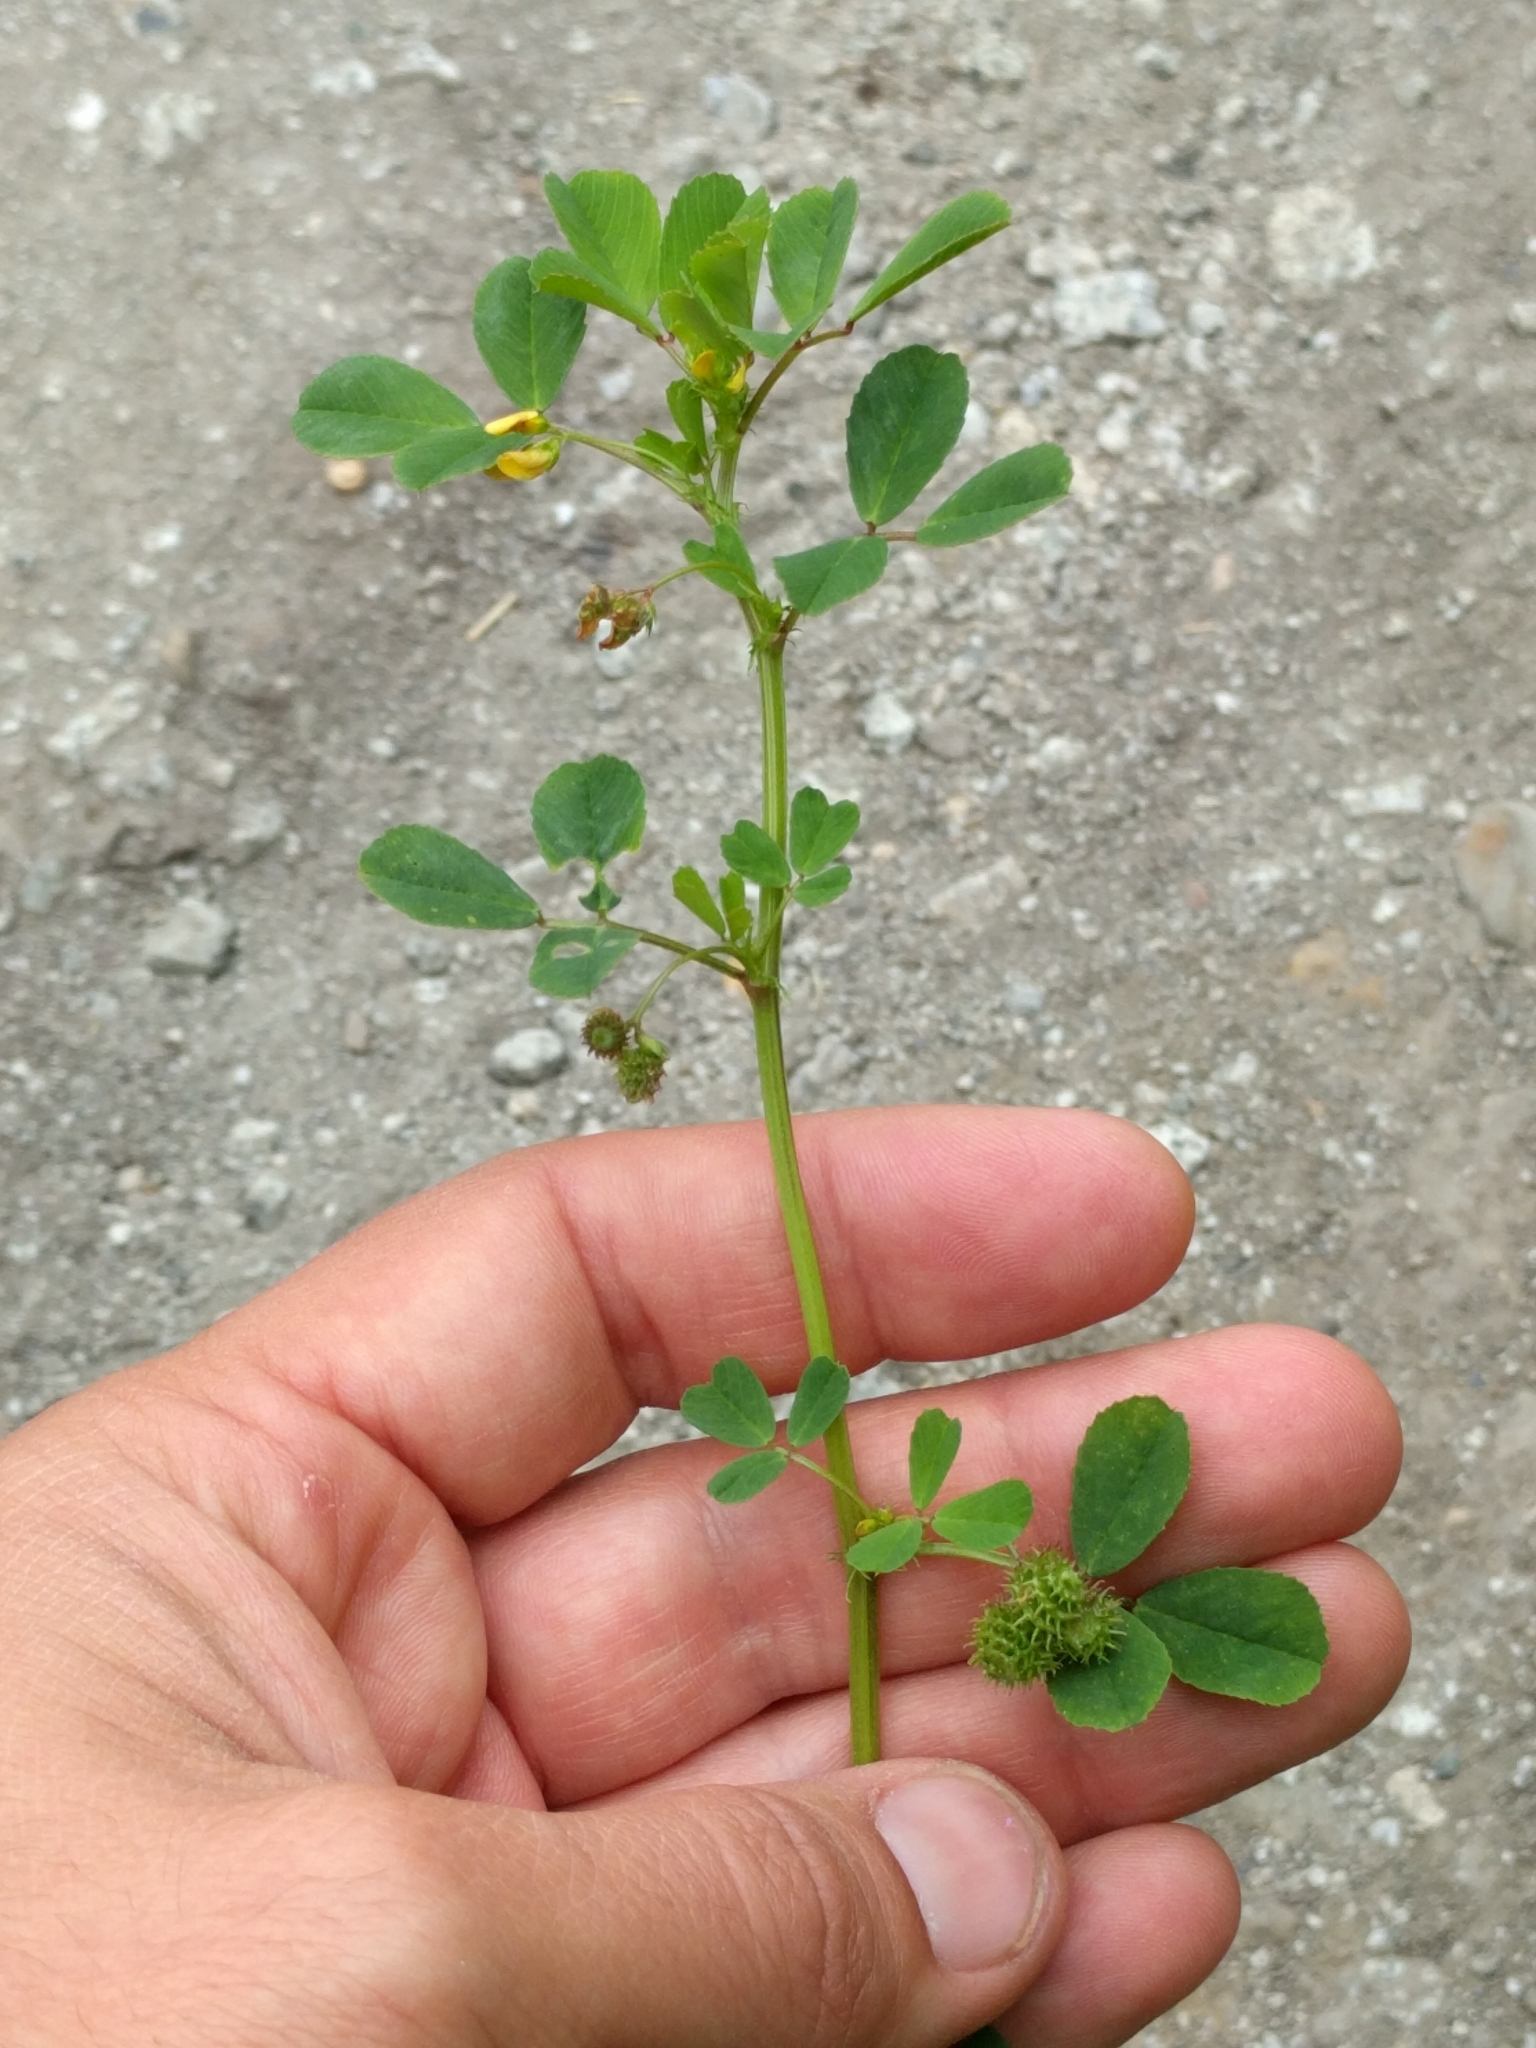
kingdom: Plantae
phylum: Tracheophyta
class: Magnoliopsida
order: Fabales
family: Fabaceae
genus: Medicago
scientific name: Medicago polymorpha
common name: Burclover
